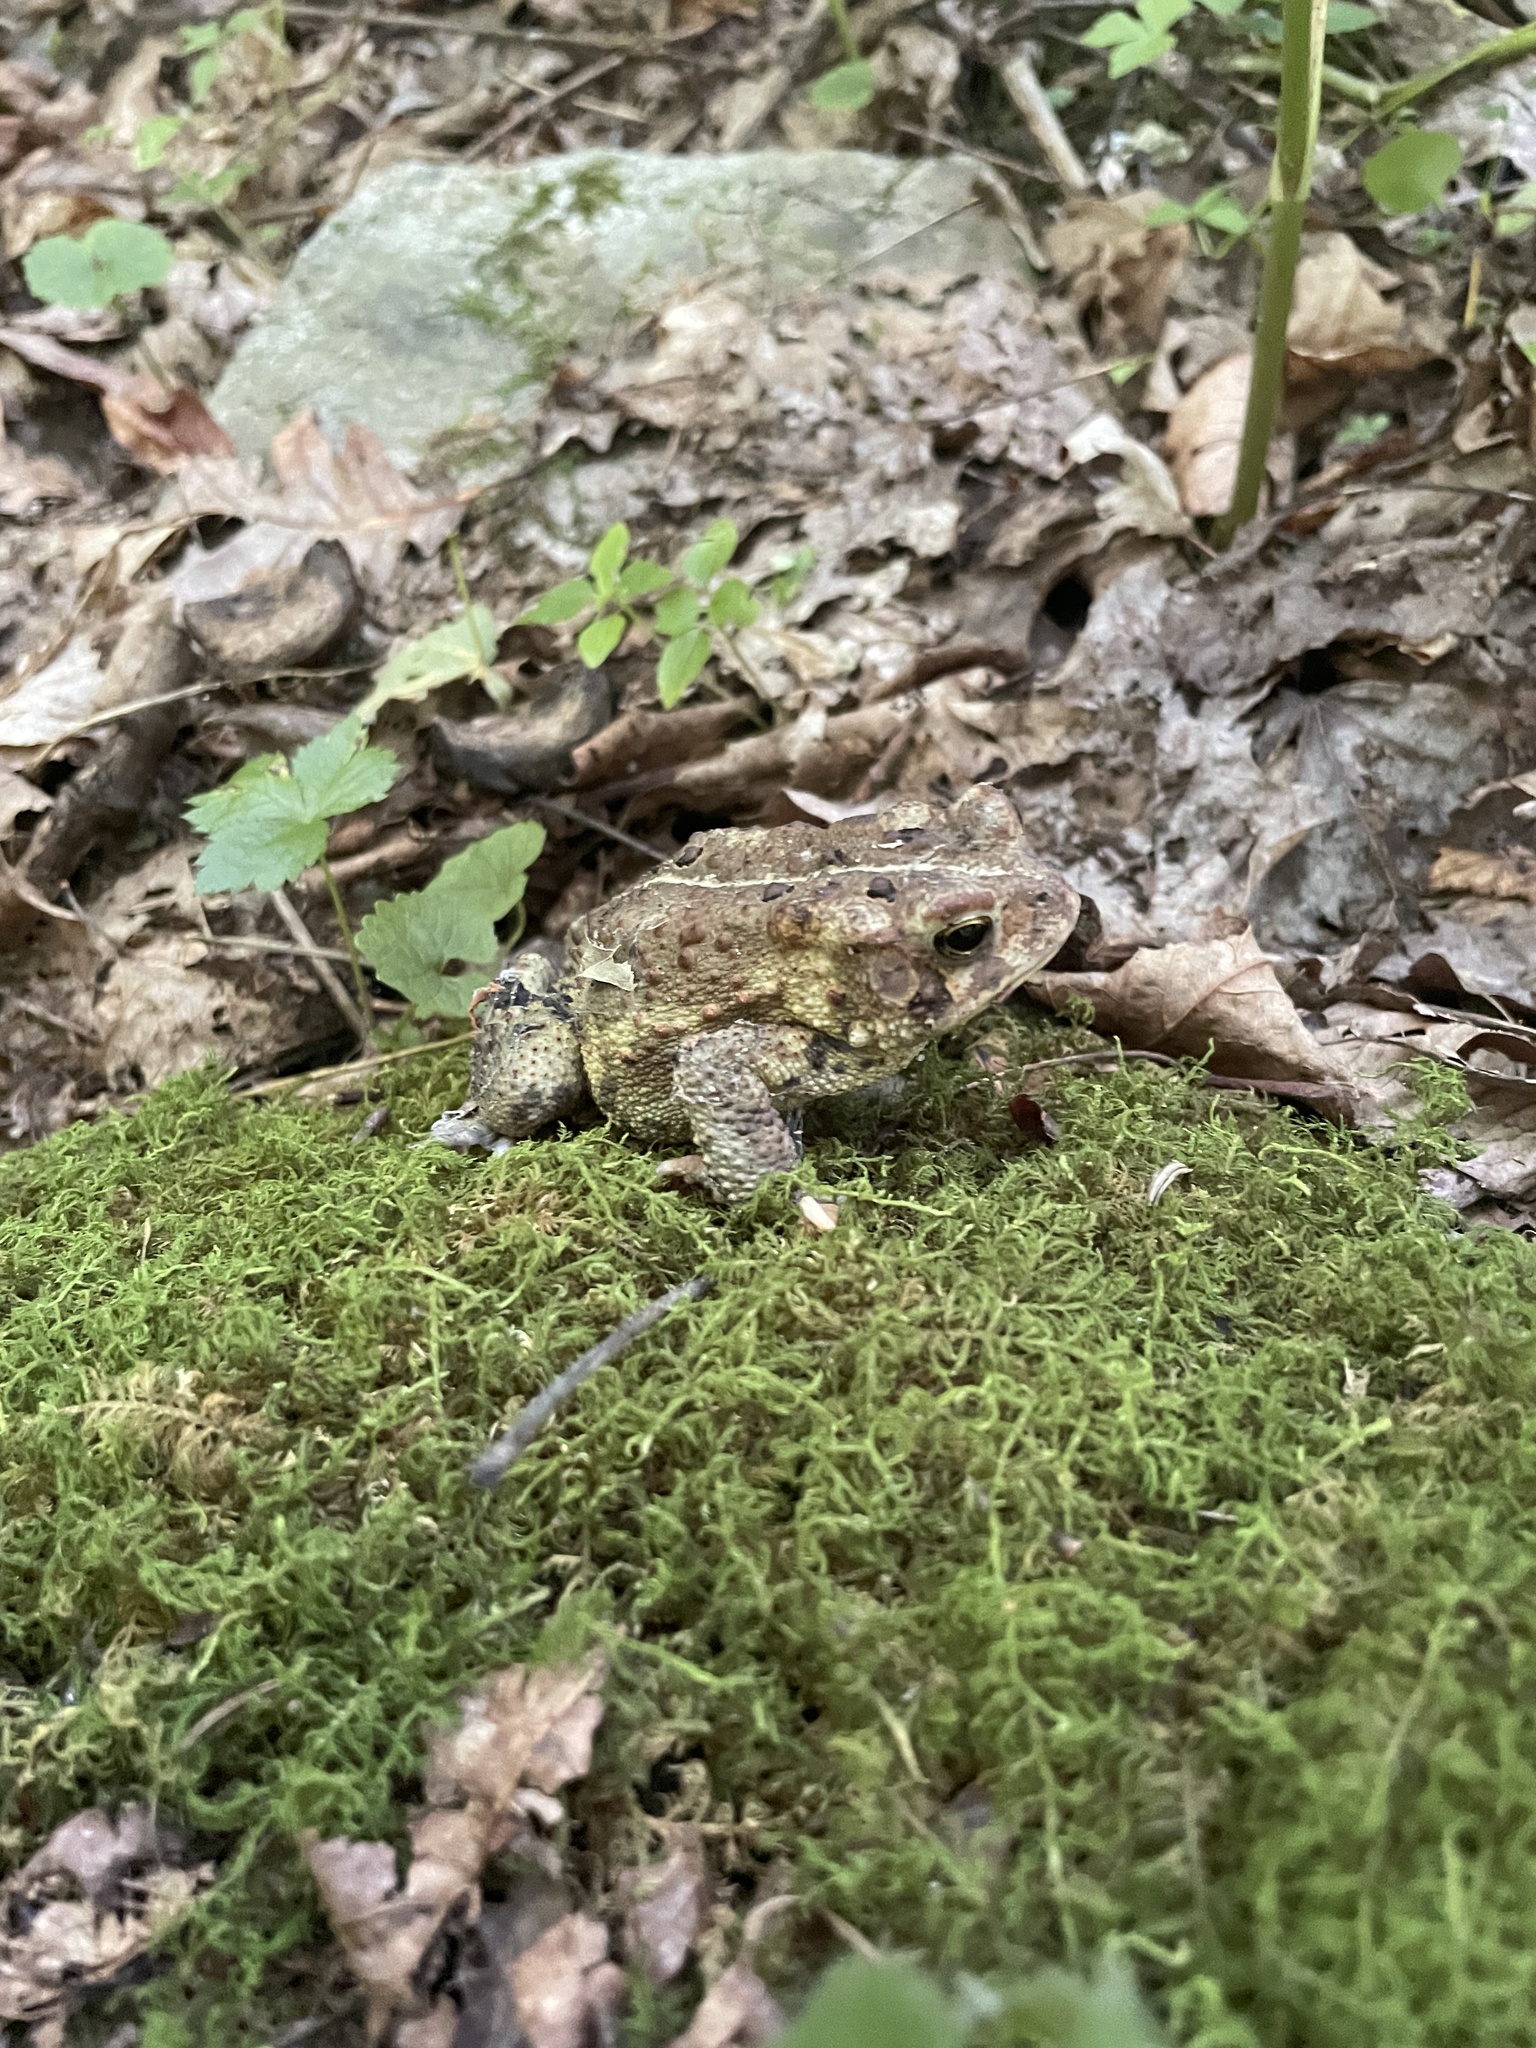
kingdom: Animalia
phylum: Chordata
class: Amphibia
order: Anura
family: Bufonidae
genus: Anaxyrus
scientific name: Anaxyrus americanus
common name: American toad
